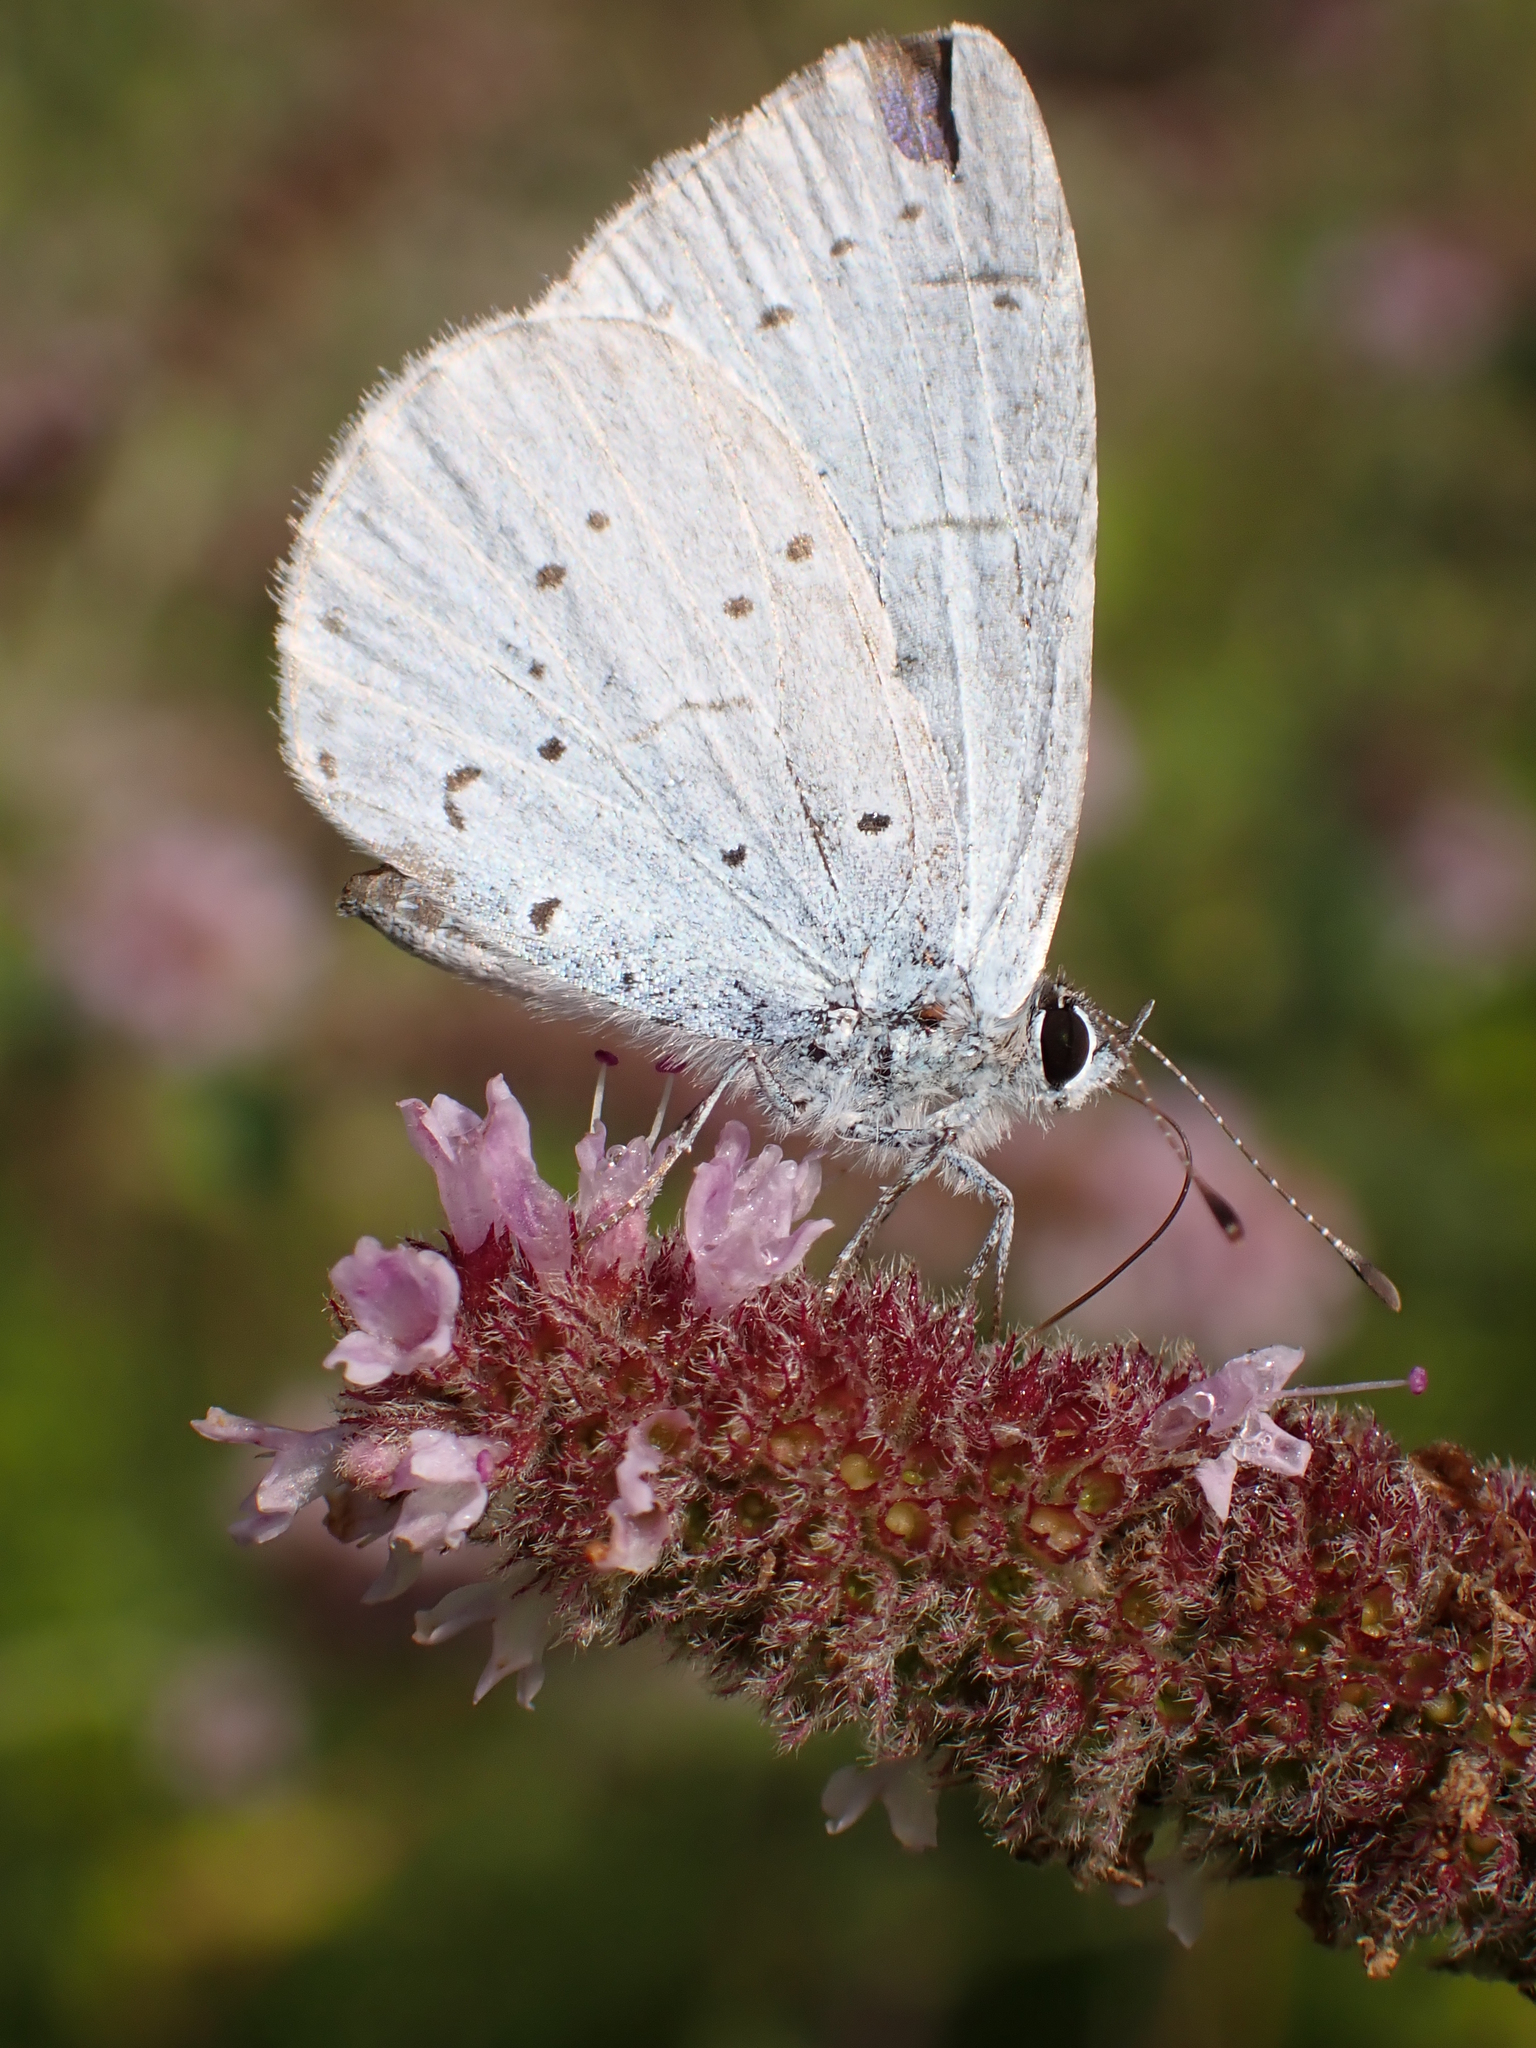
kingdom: Animalia
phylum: Arthropoda
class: Insecta
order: Lepidoptera
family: Lycaenidae
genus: Celastrina
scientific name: Celastrina argiolus
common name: Holly blue
